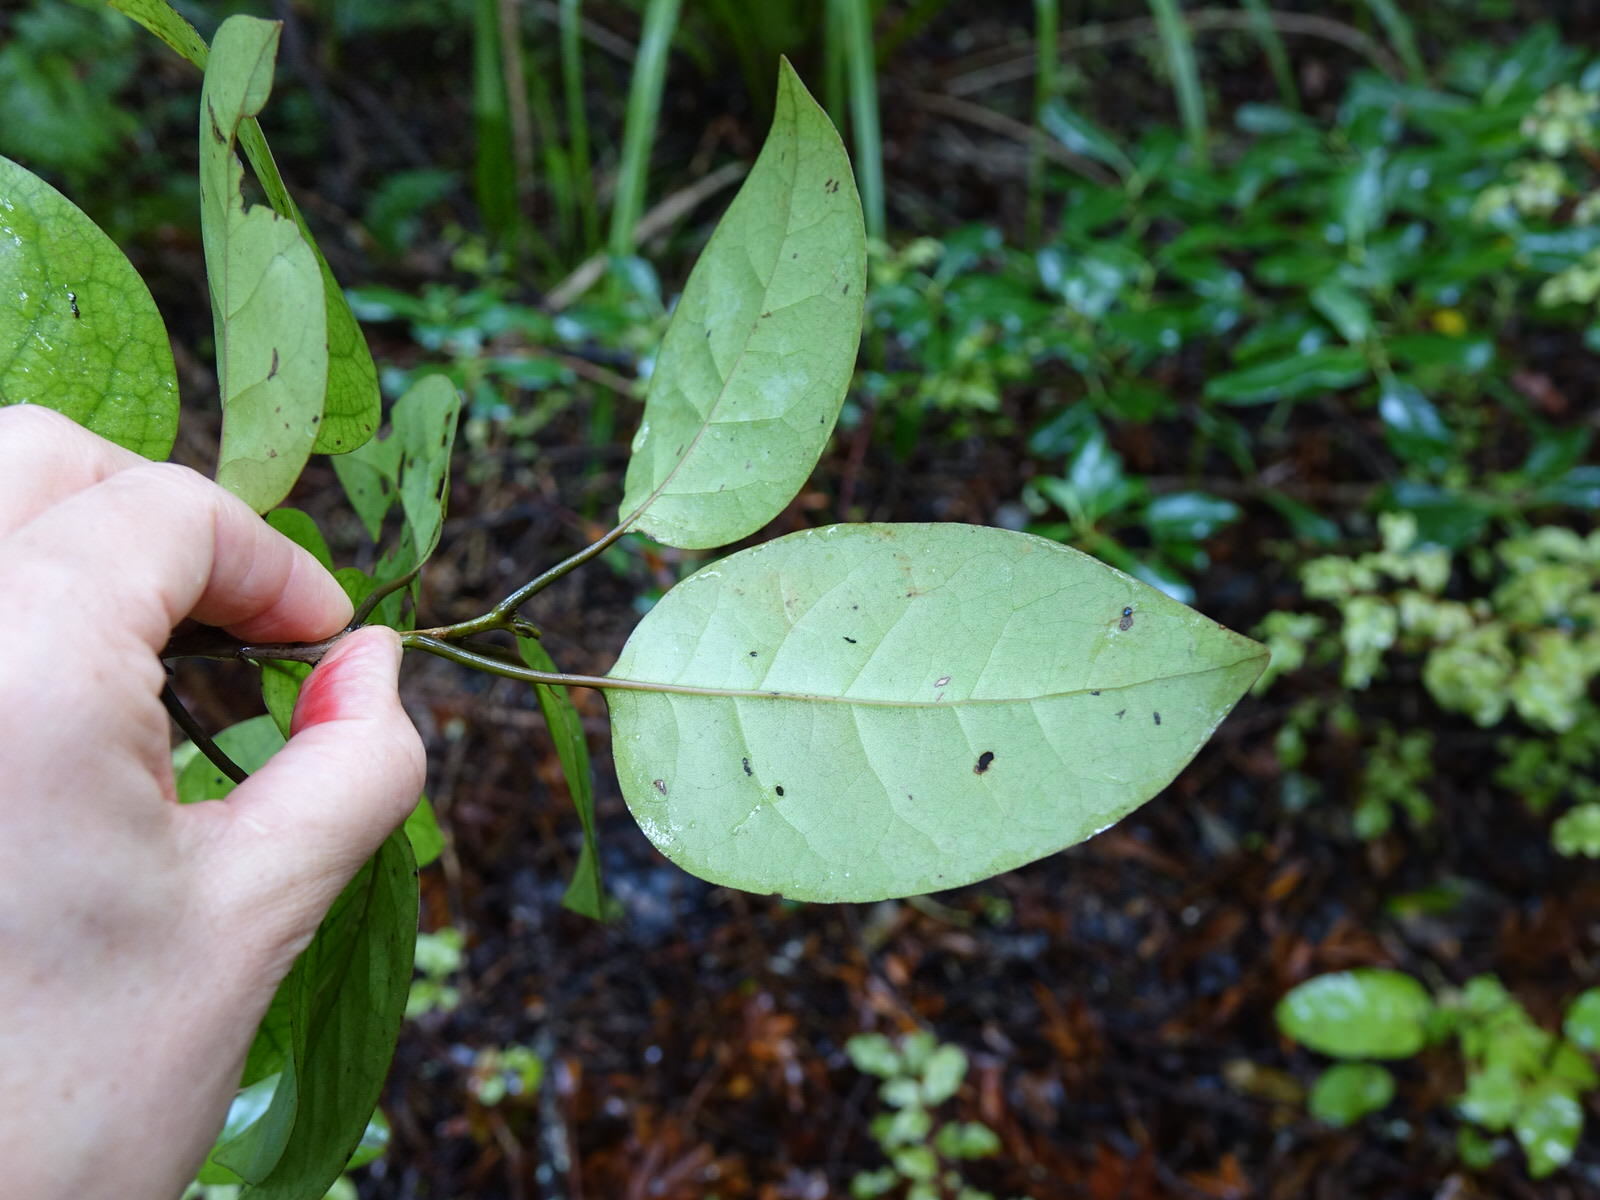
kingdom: Plantae
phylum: Tracheophyta
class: Magnoliopsida
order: Laurales
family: Lauraceae
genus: Litsea
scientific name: Litsea calicaris
